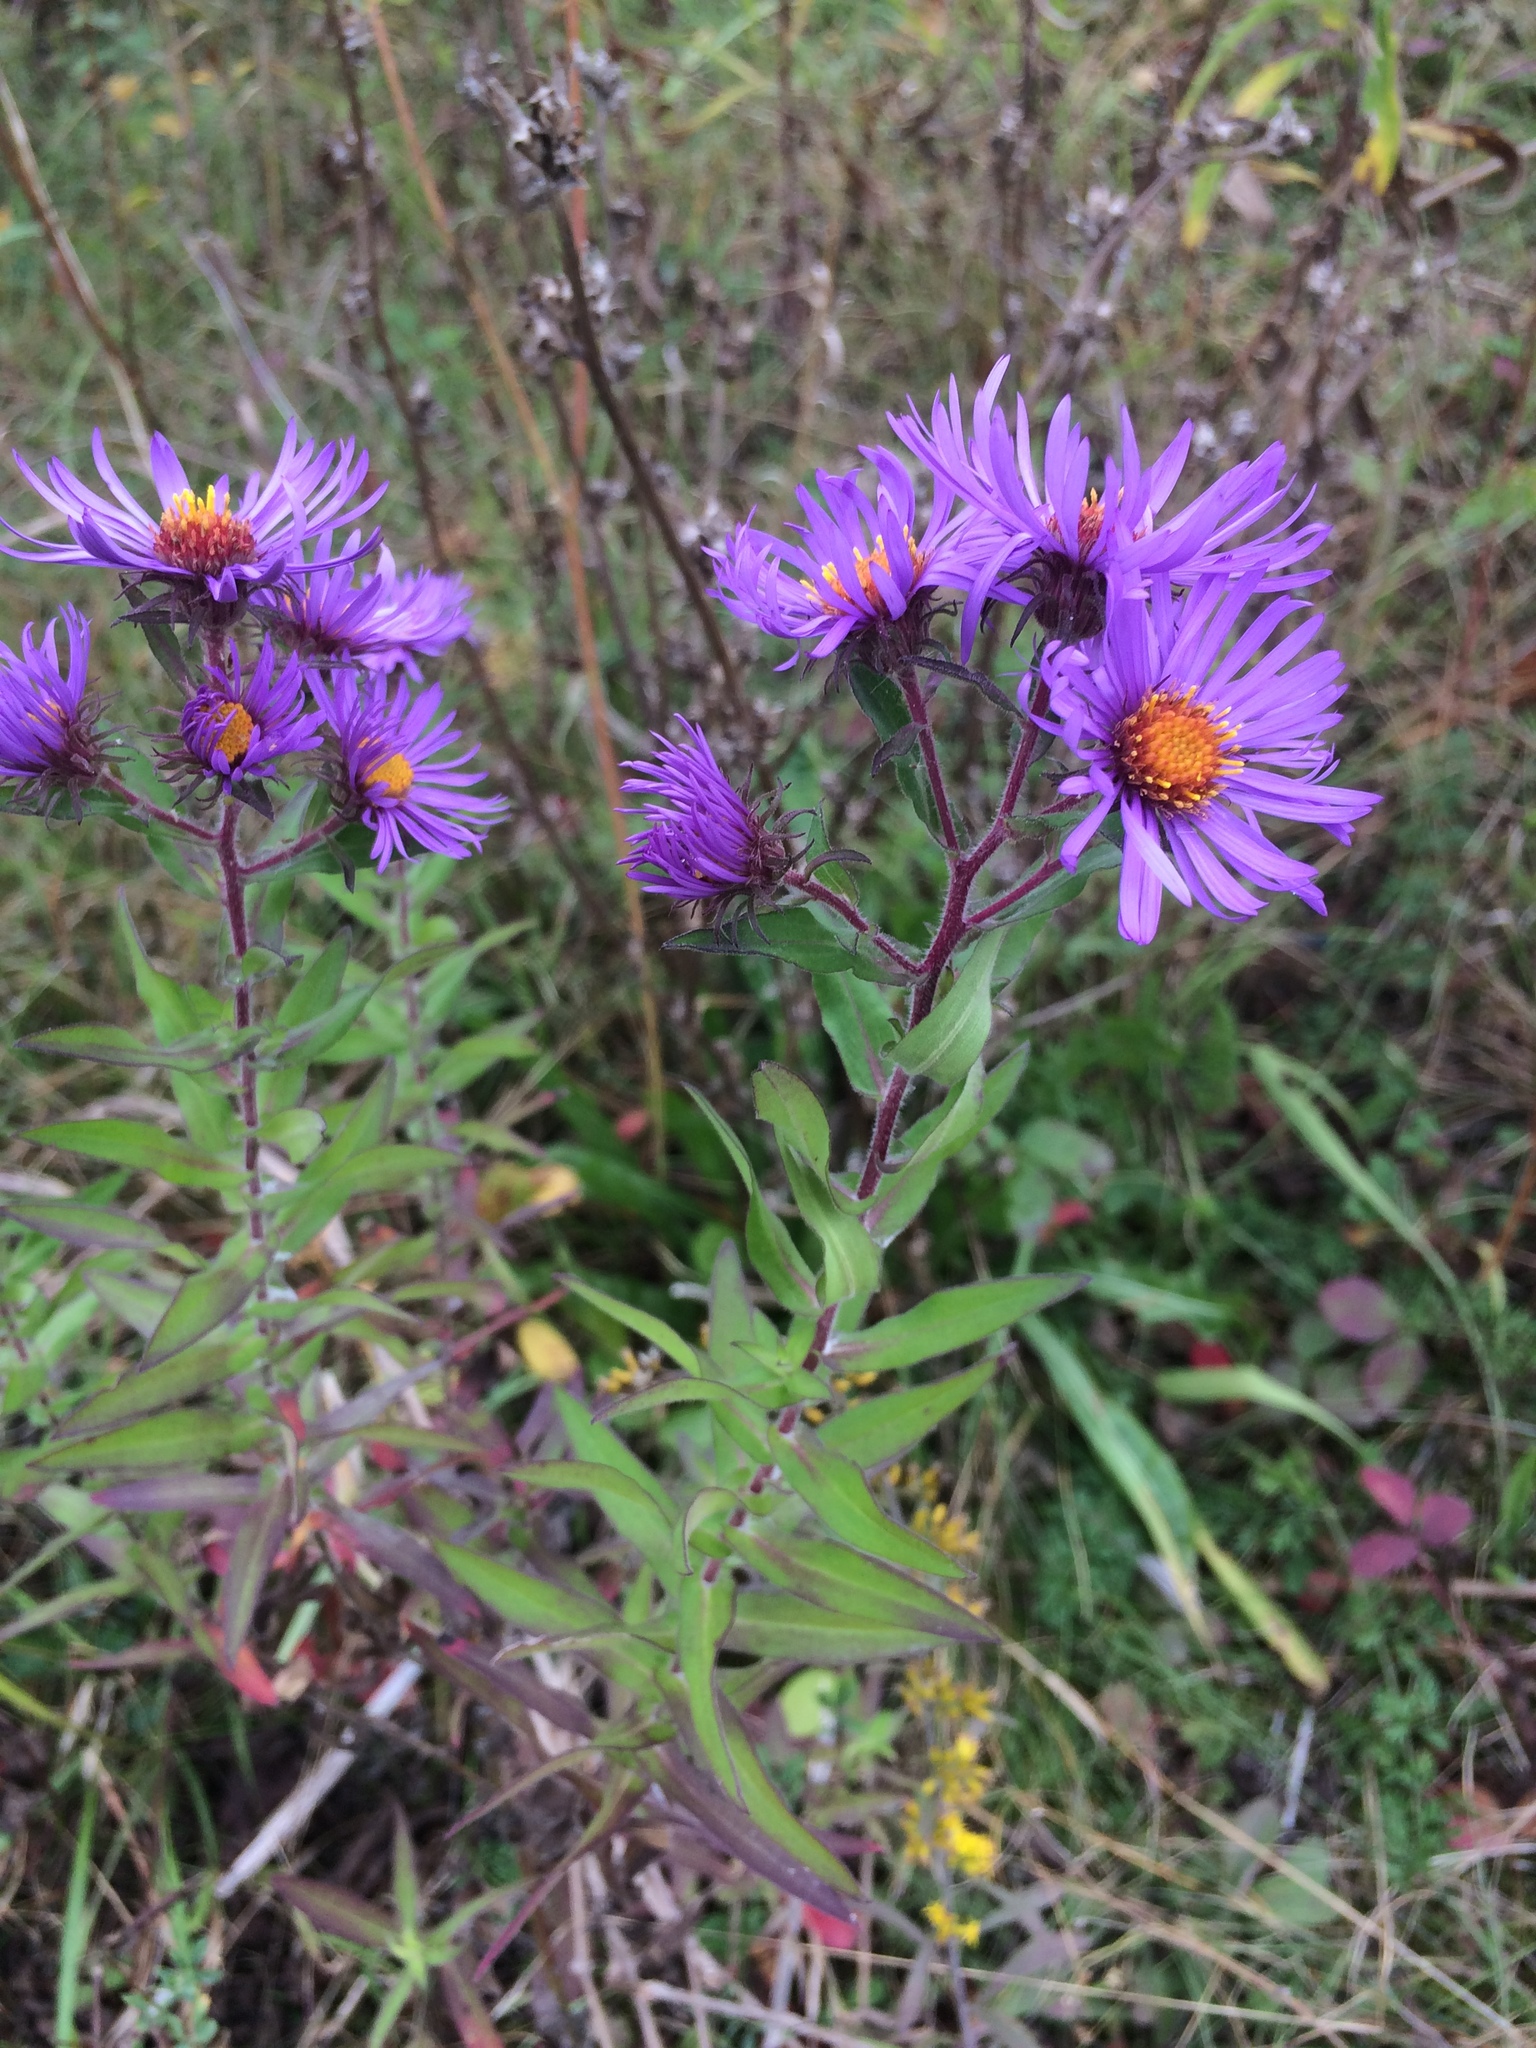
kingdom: Plantae
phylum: Tracheophyta
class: Magnoliopsida
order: Asterales
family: Asteraceae
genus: Symphyotrichum
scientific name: Symphyotrichum novae-angliae
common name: Michaelmas daisy
